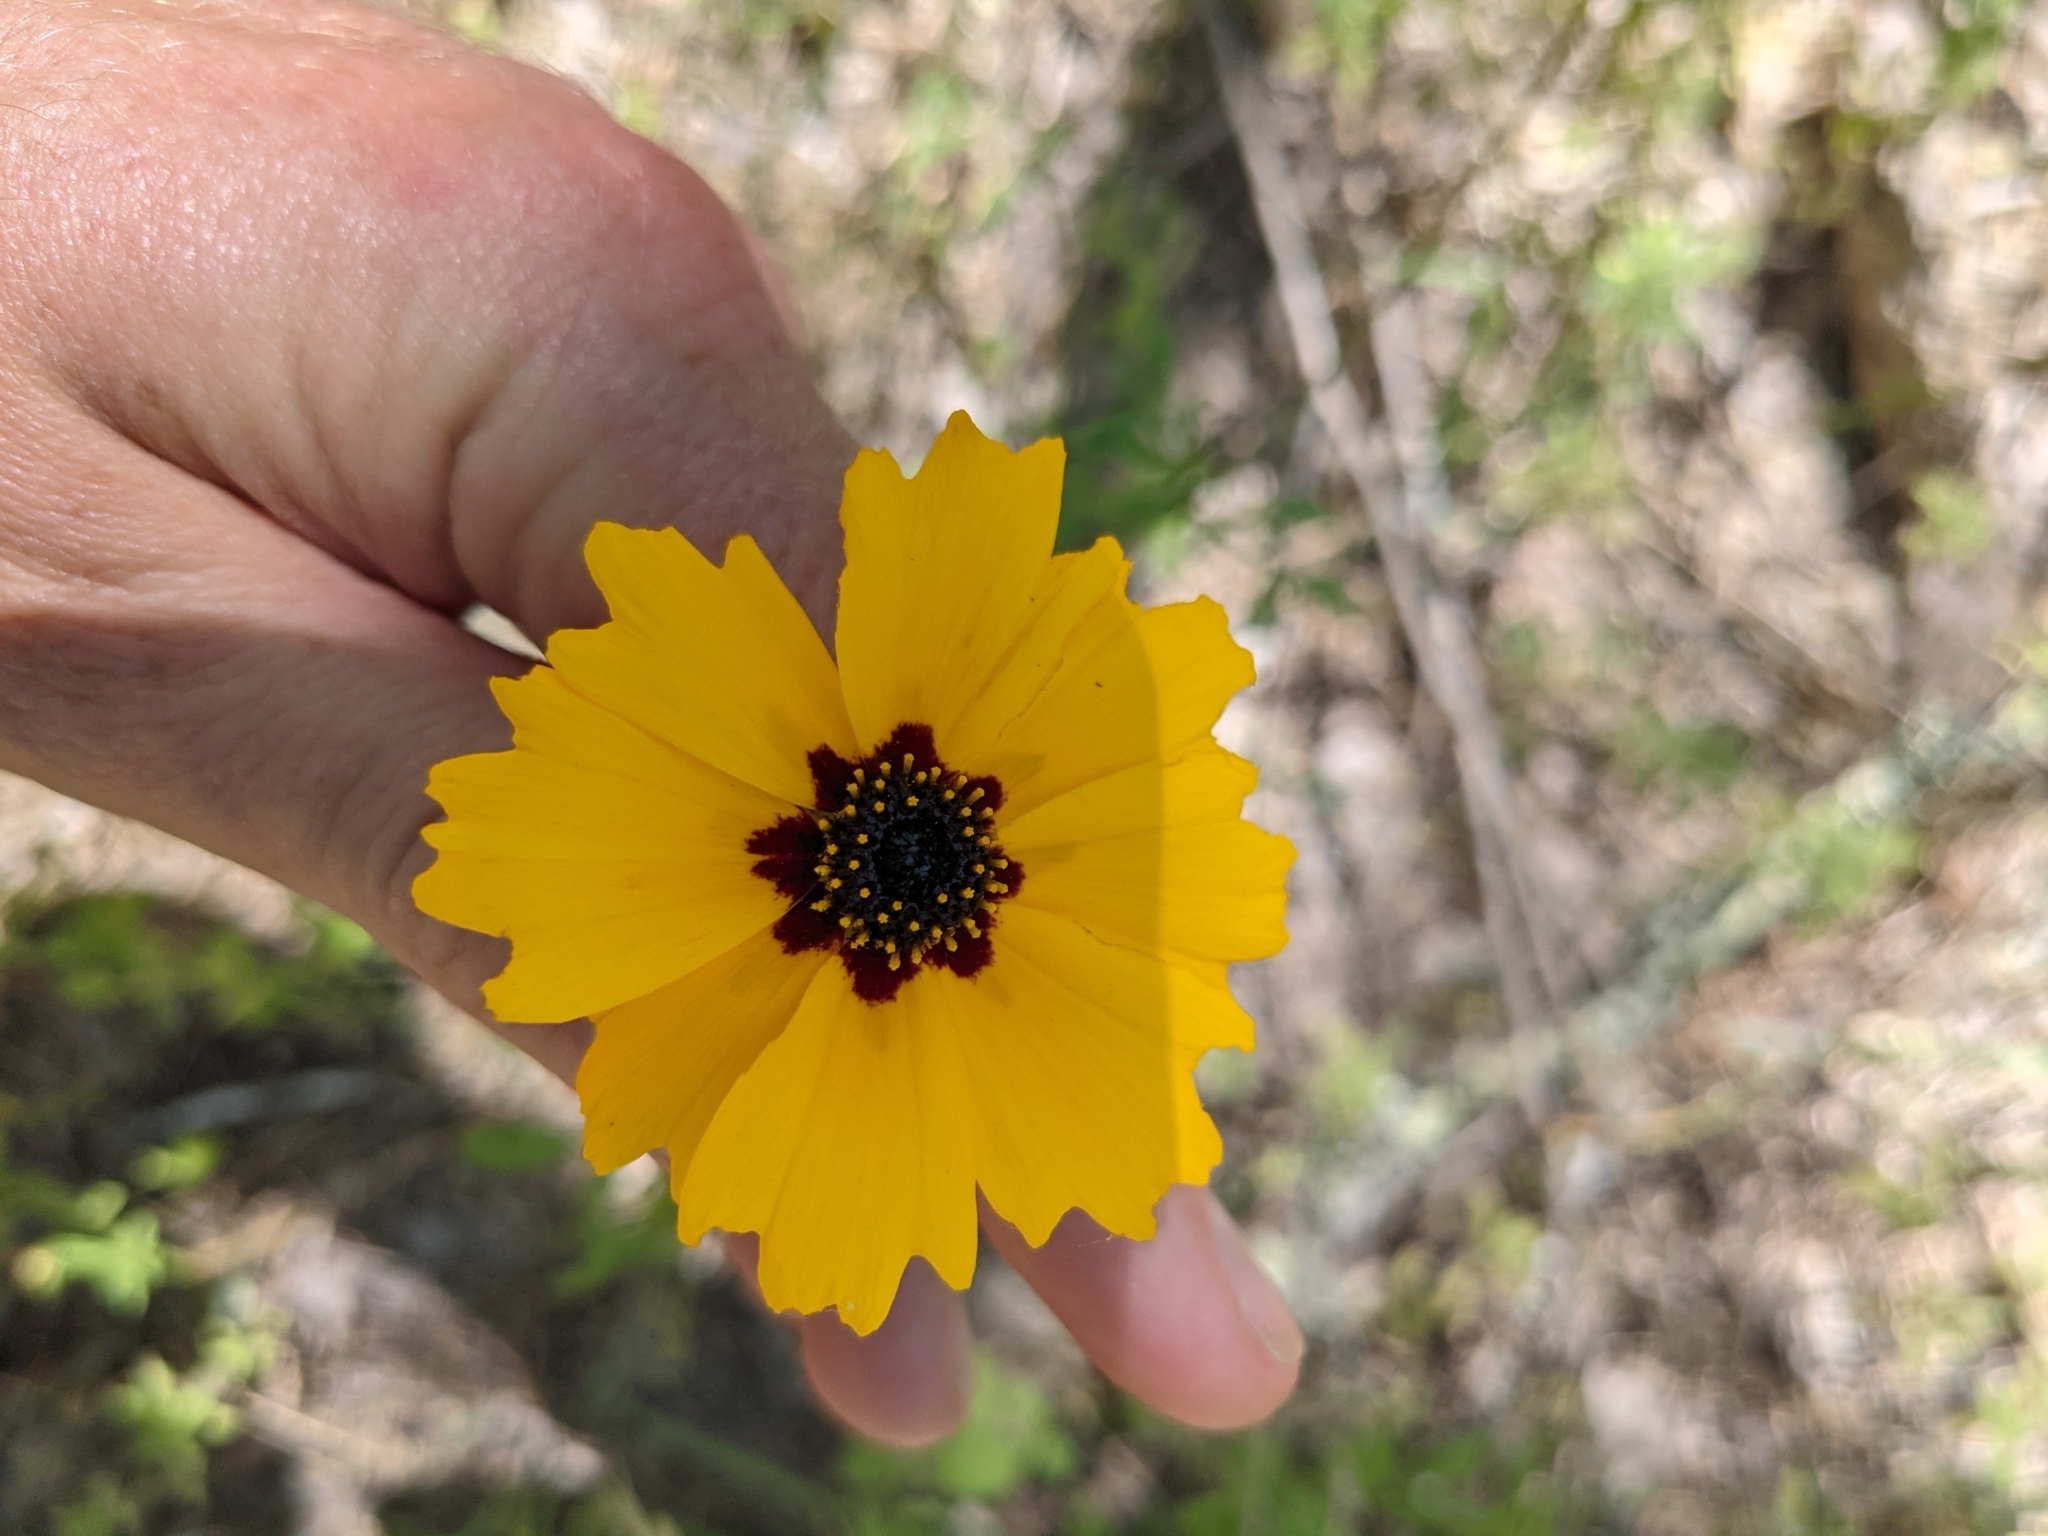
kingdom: Plantae
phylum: Tracheophyta
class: Magnoliopsida
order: Asterales
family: Asteraceae
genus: Coreopsis
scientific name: Coreopsis basalis
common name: Golden-mane coreopsis
